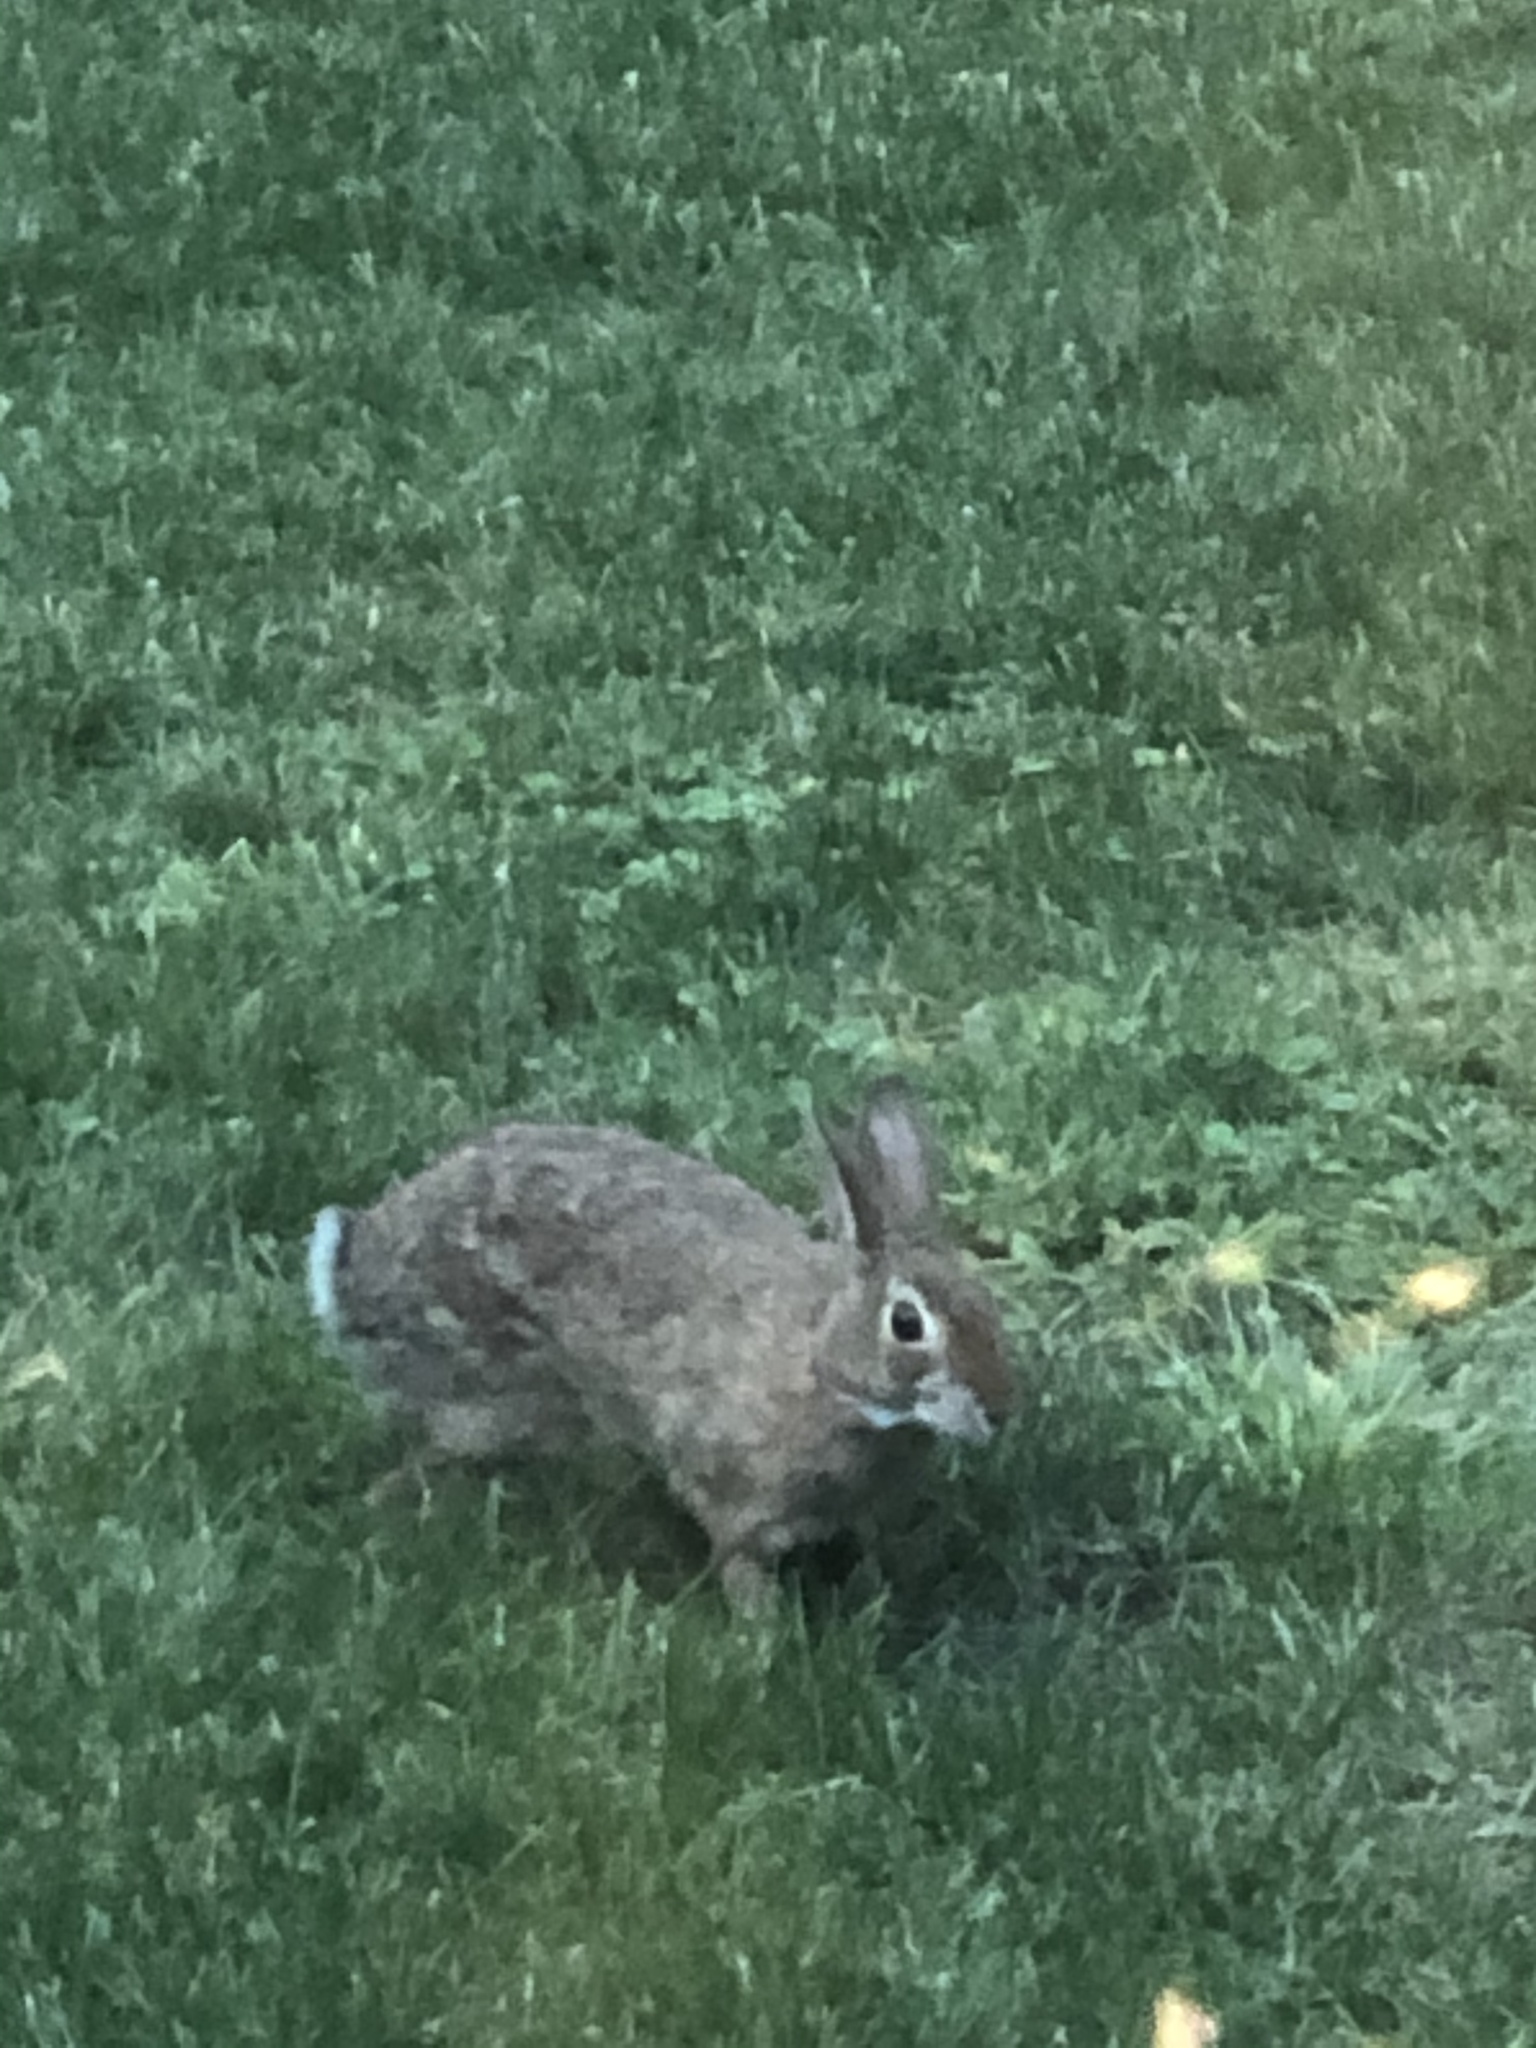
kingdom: Animalia
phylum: Chordata
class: Mammalia
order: Lagomorpha
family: Leporidae
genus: Sylvilagus
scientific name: Sylvilagus floridanus
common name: Eastern cottontail
